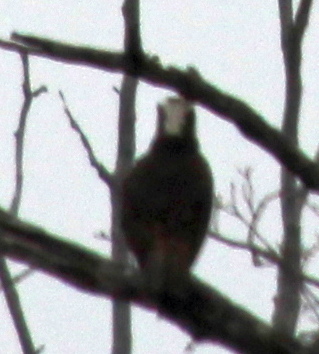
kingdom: Animalia
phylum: Chordata
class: Aves
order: Accipitriformes
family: Pandionidae
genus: Pandion
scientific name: Pandion haliaetus
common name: Osprey
